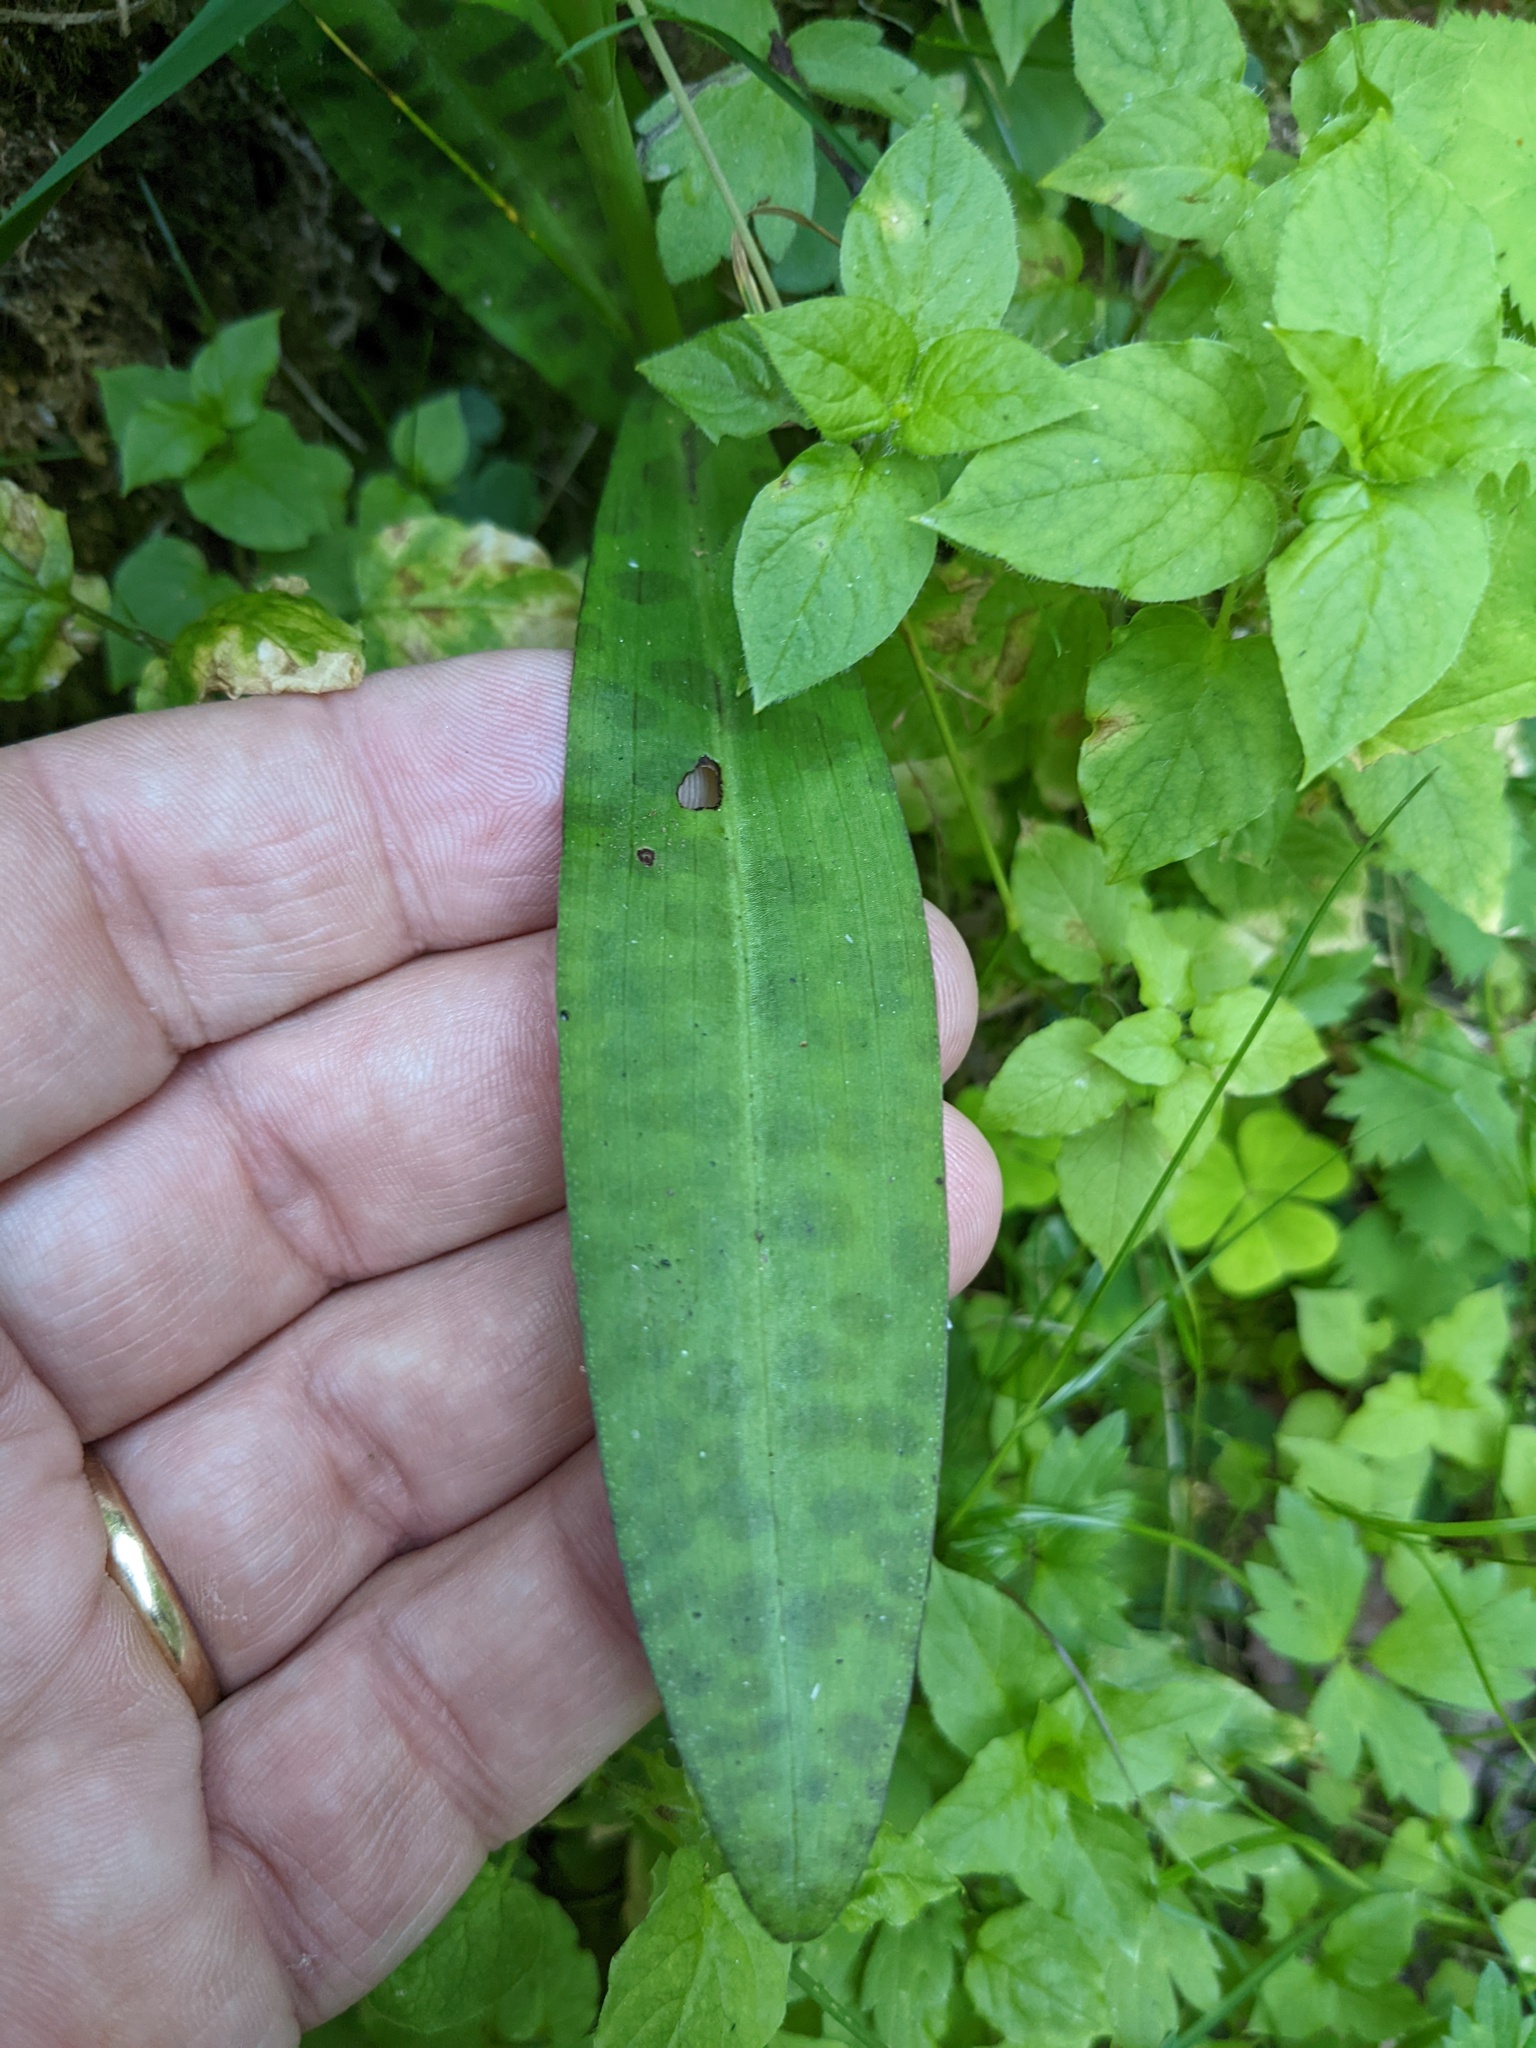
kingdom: Plantae
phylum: Tracheophyta
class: Liliopsida
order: Asparagales
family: Orchidaceae
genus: Dactylorhiza
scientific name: Dactylorhiza maculata
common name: Heath spotted-orchid
